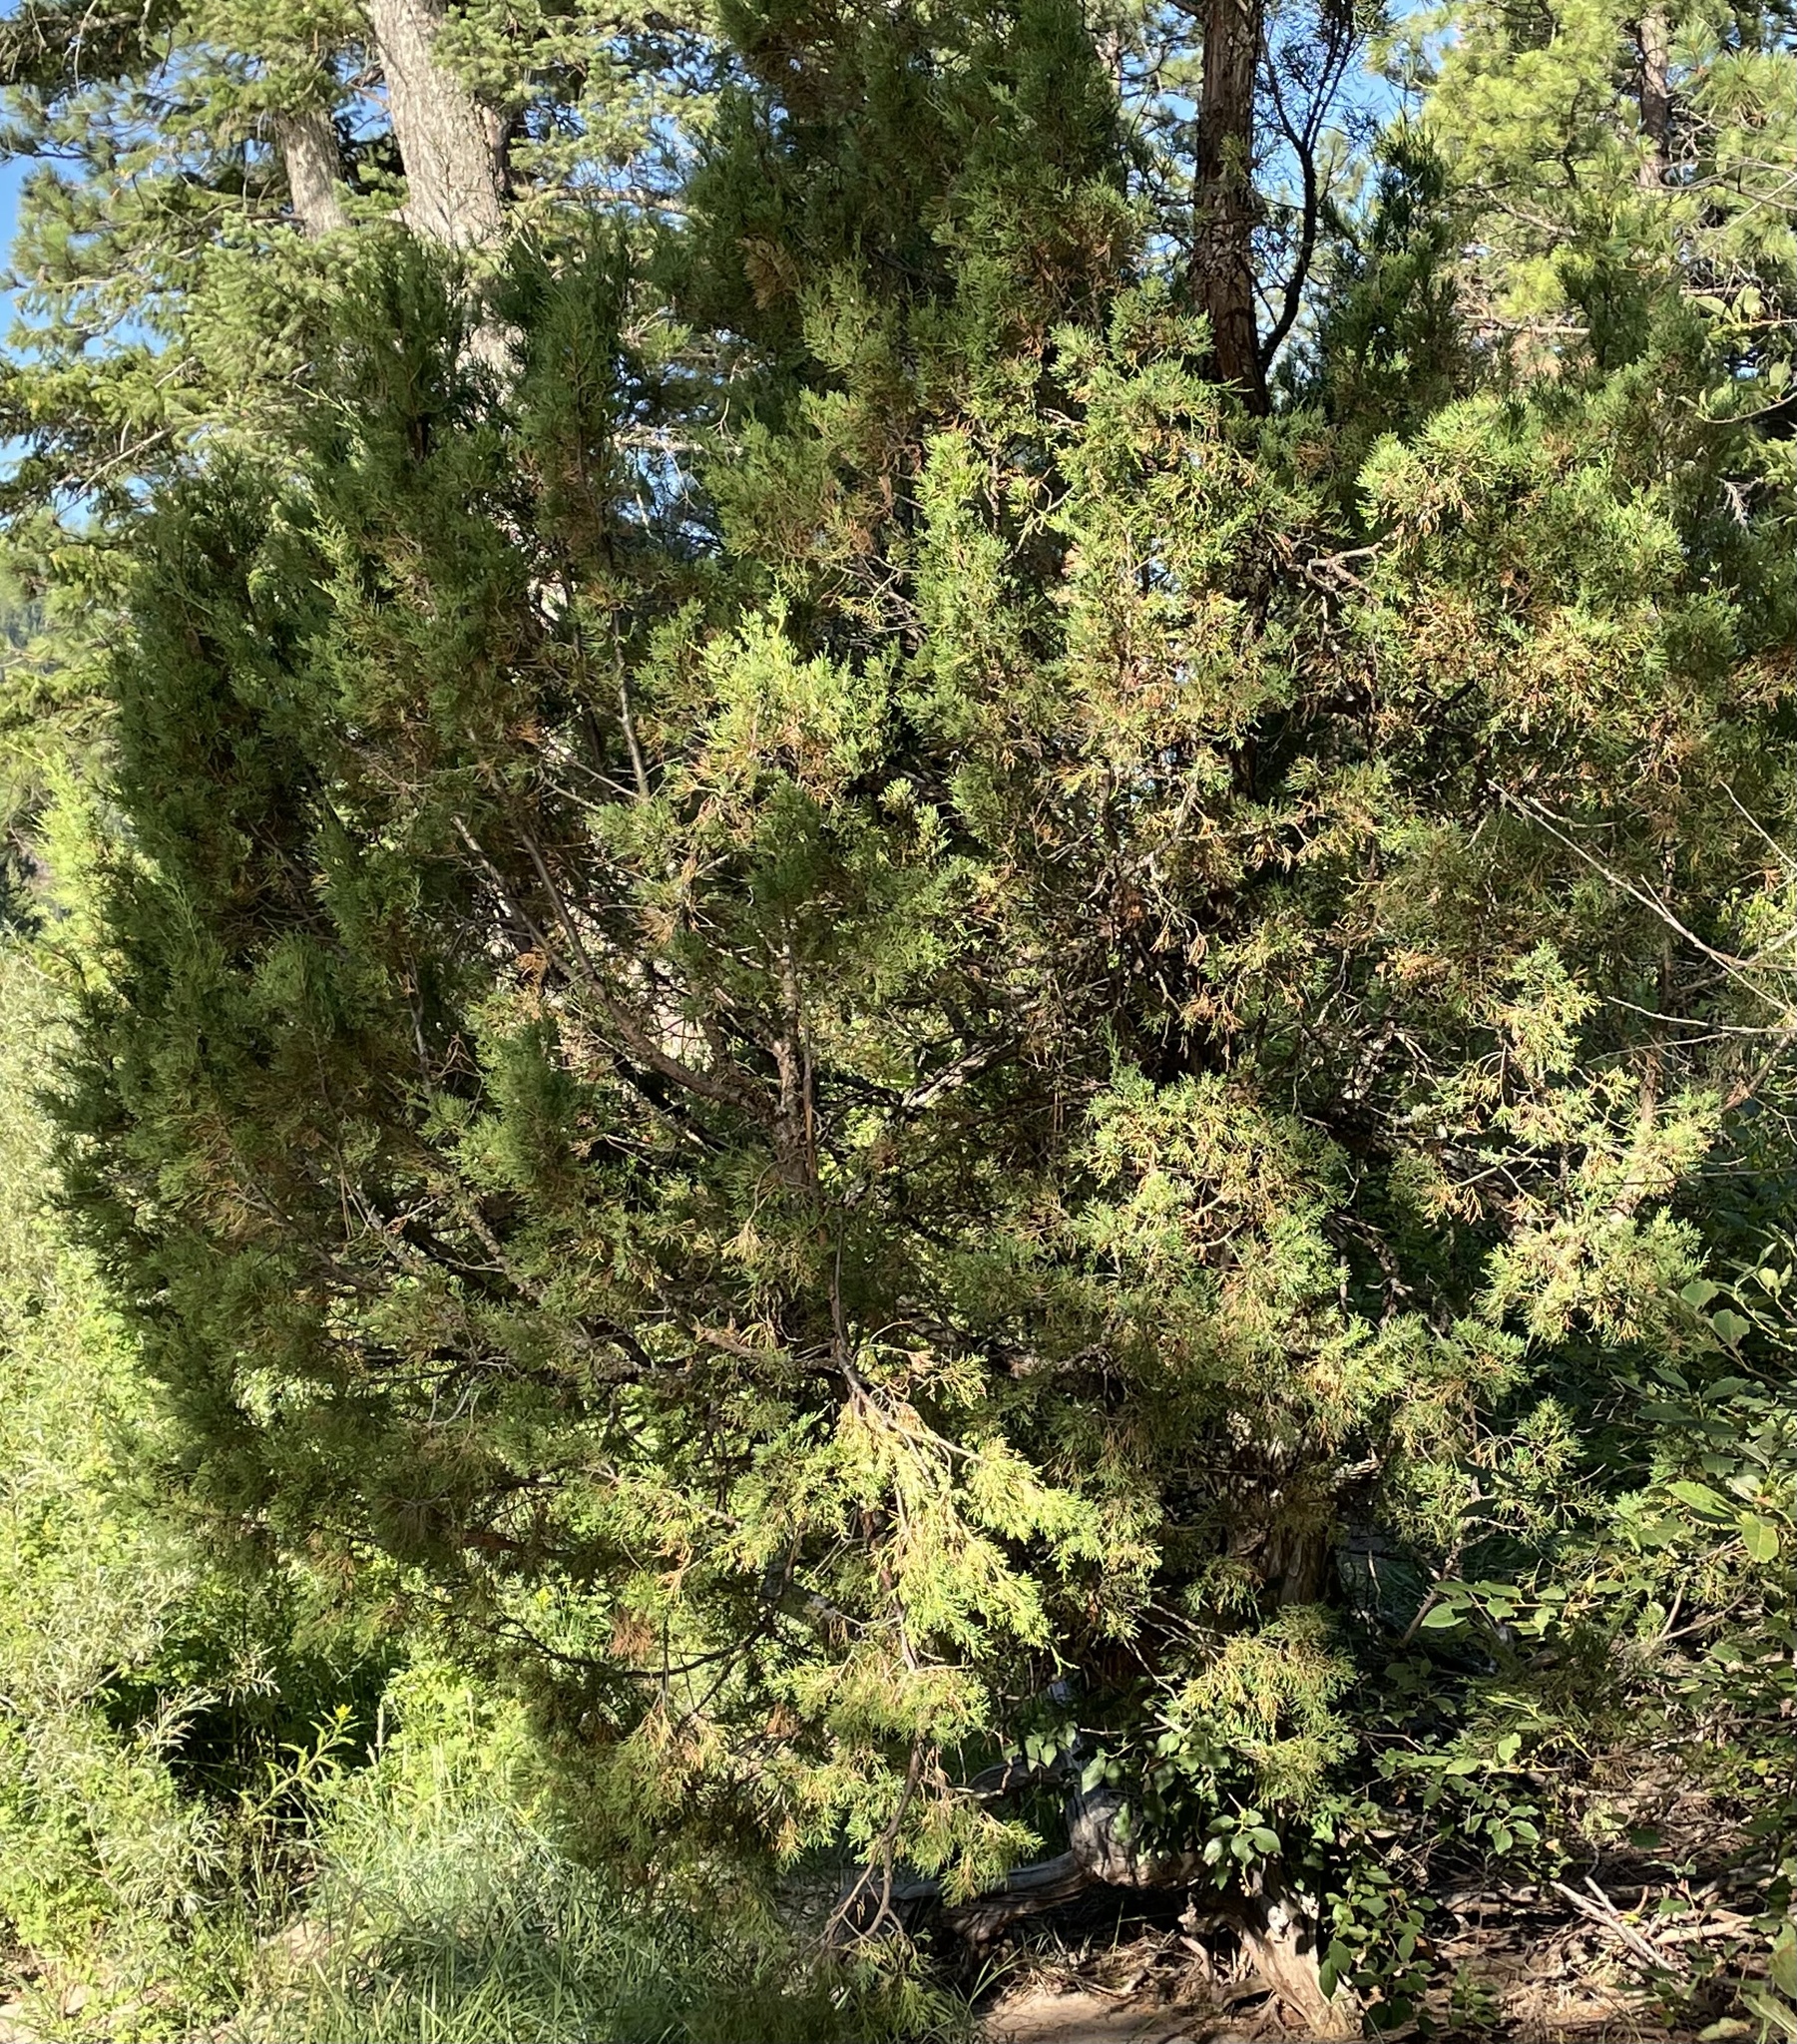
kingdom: Plantae
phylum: Tracheophyta
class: Pinopsida
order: Pinales
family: Cupressaceae
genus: Juniperus
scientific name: Juniperus scopulorum
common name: Rocky mountain juniper
